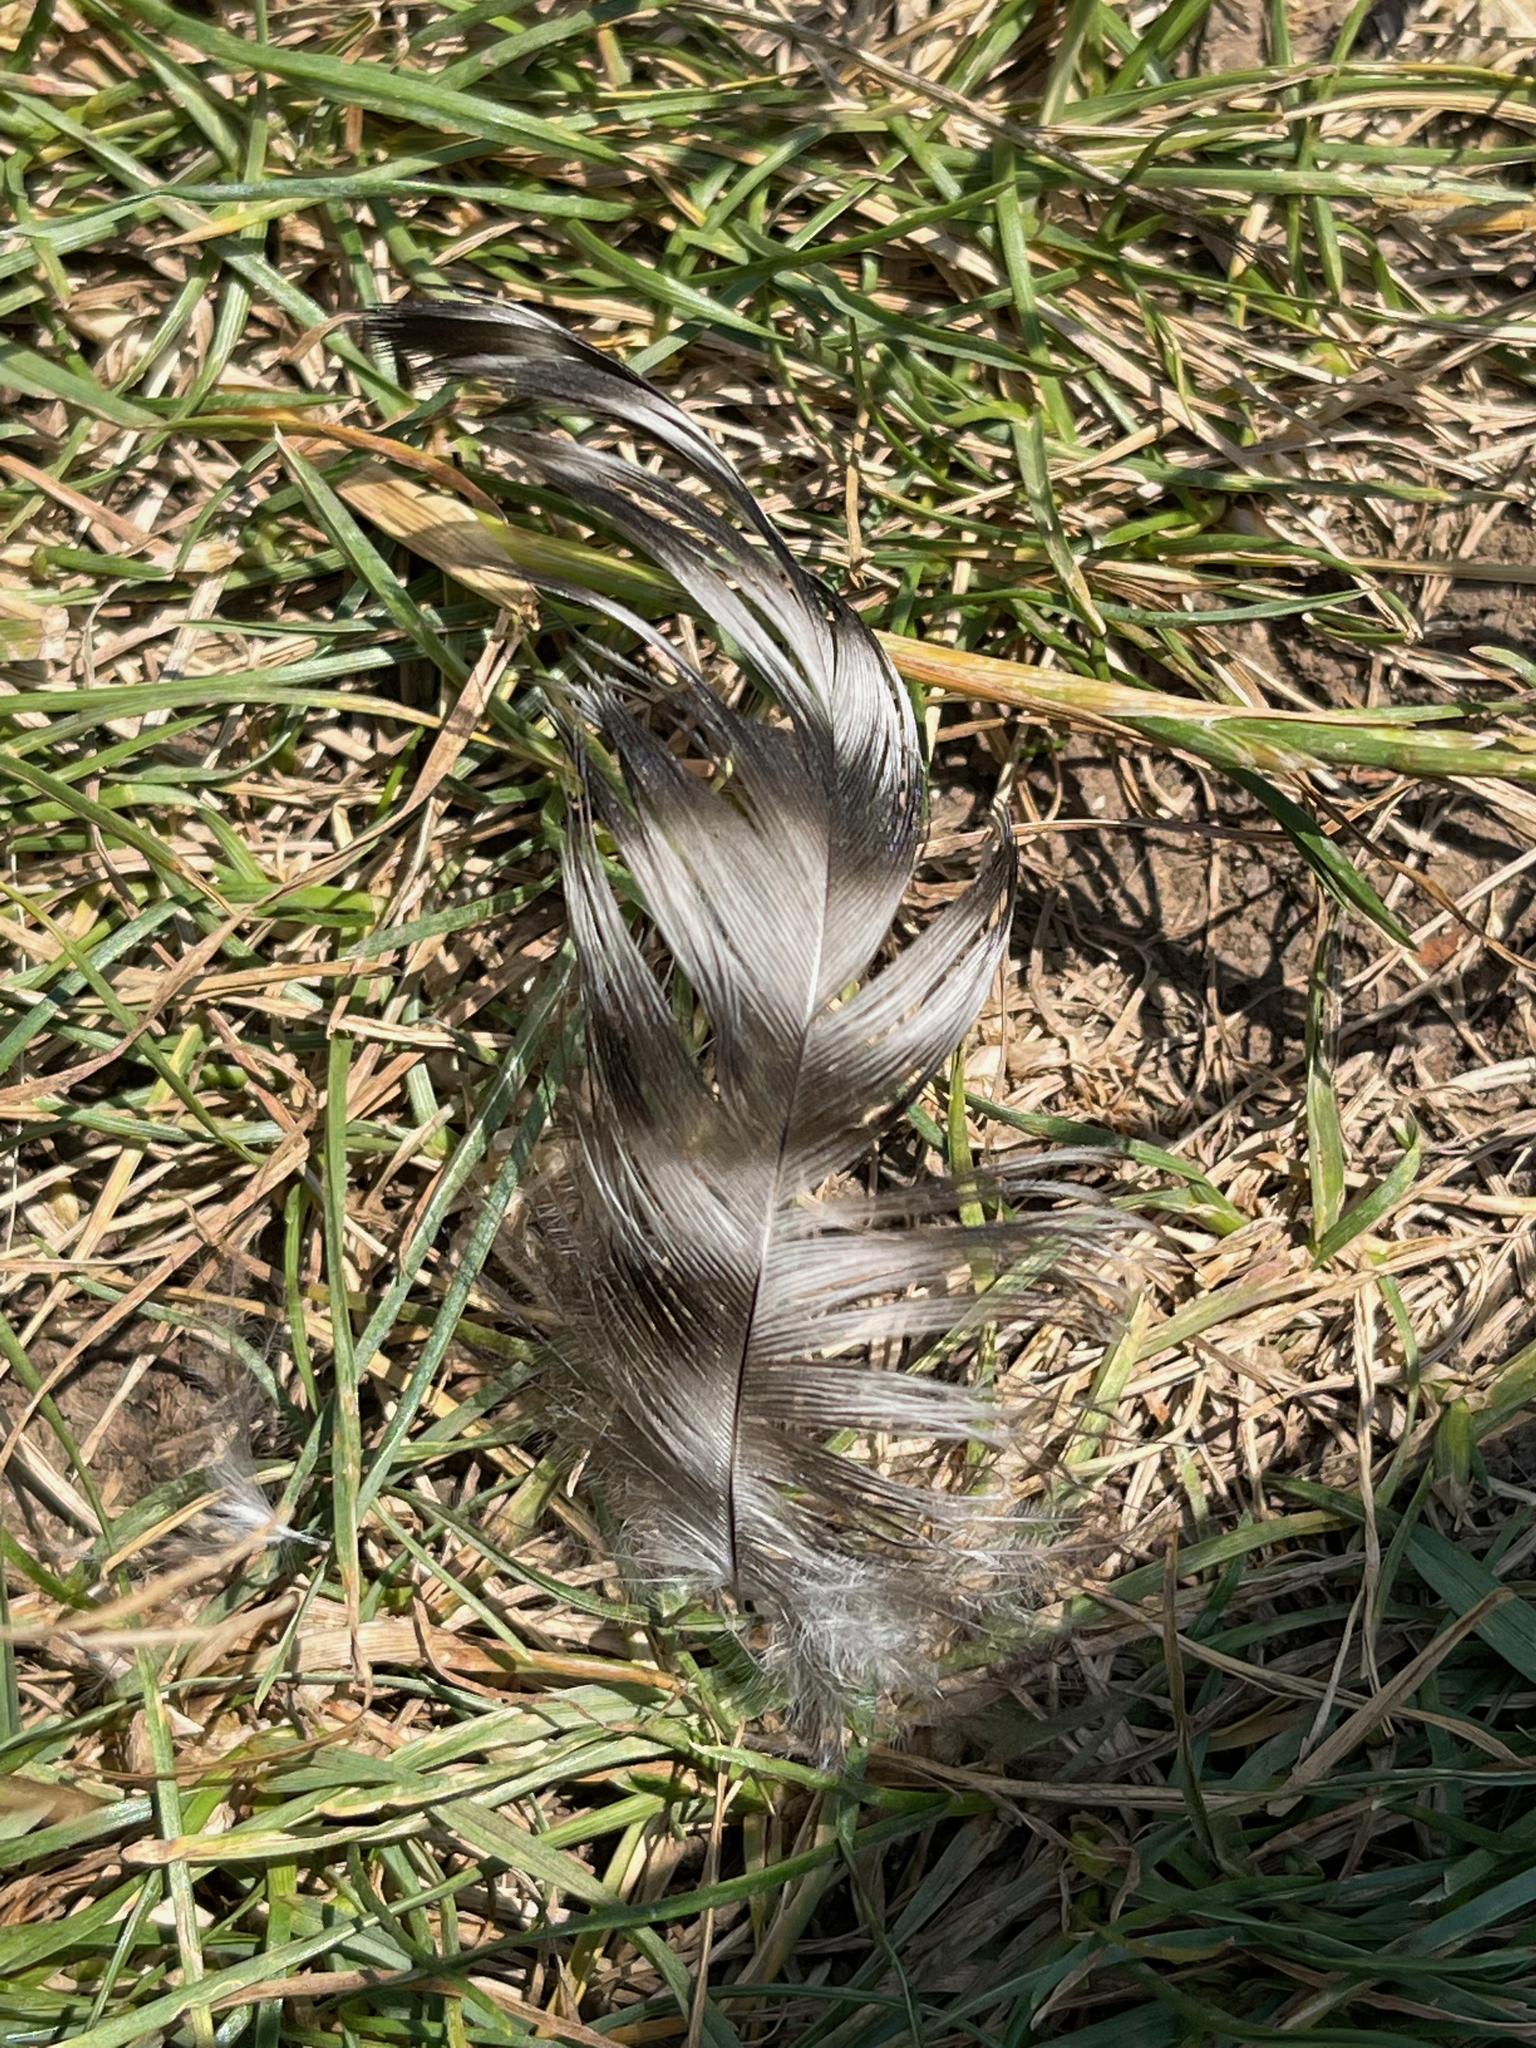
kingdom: Animalia
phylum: Chordata
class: Aves
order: Galliformes
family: Phasianidae
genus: Gallus
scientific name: Gallus gallus
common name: Red junglefowl
